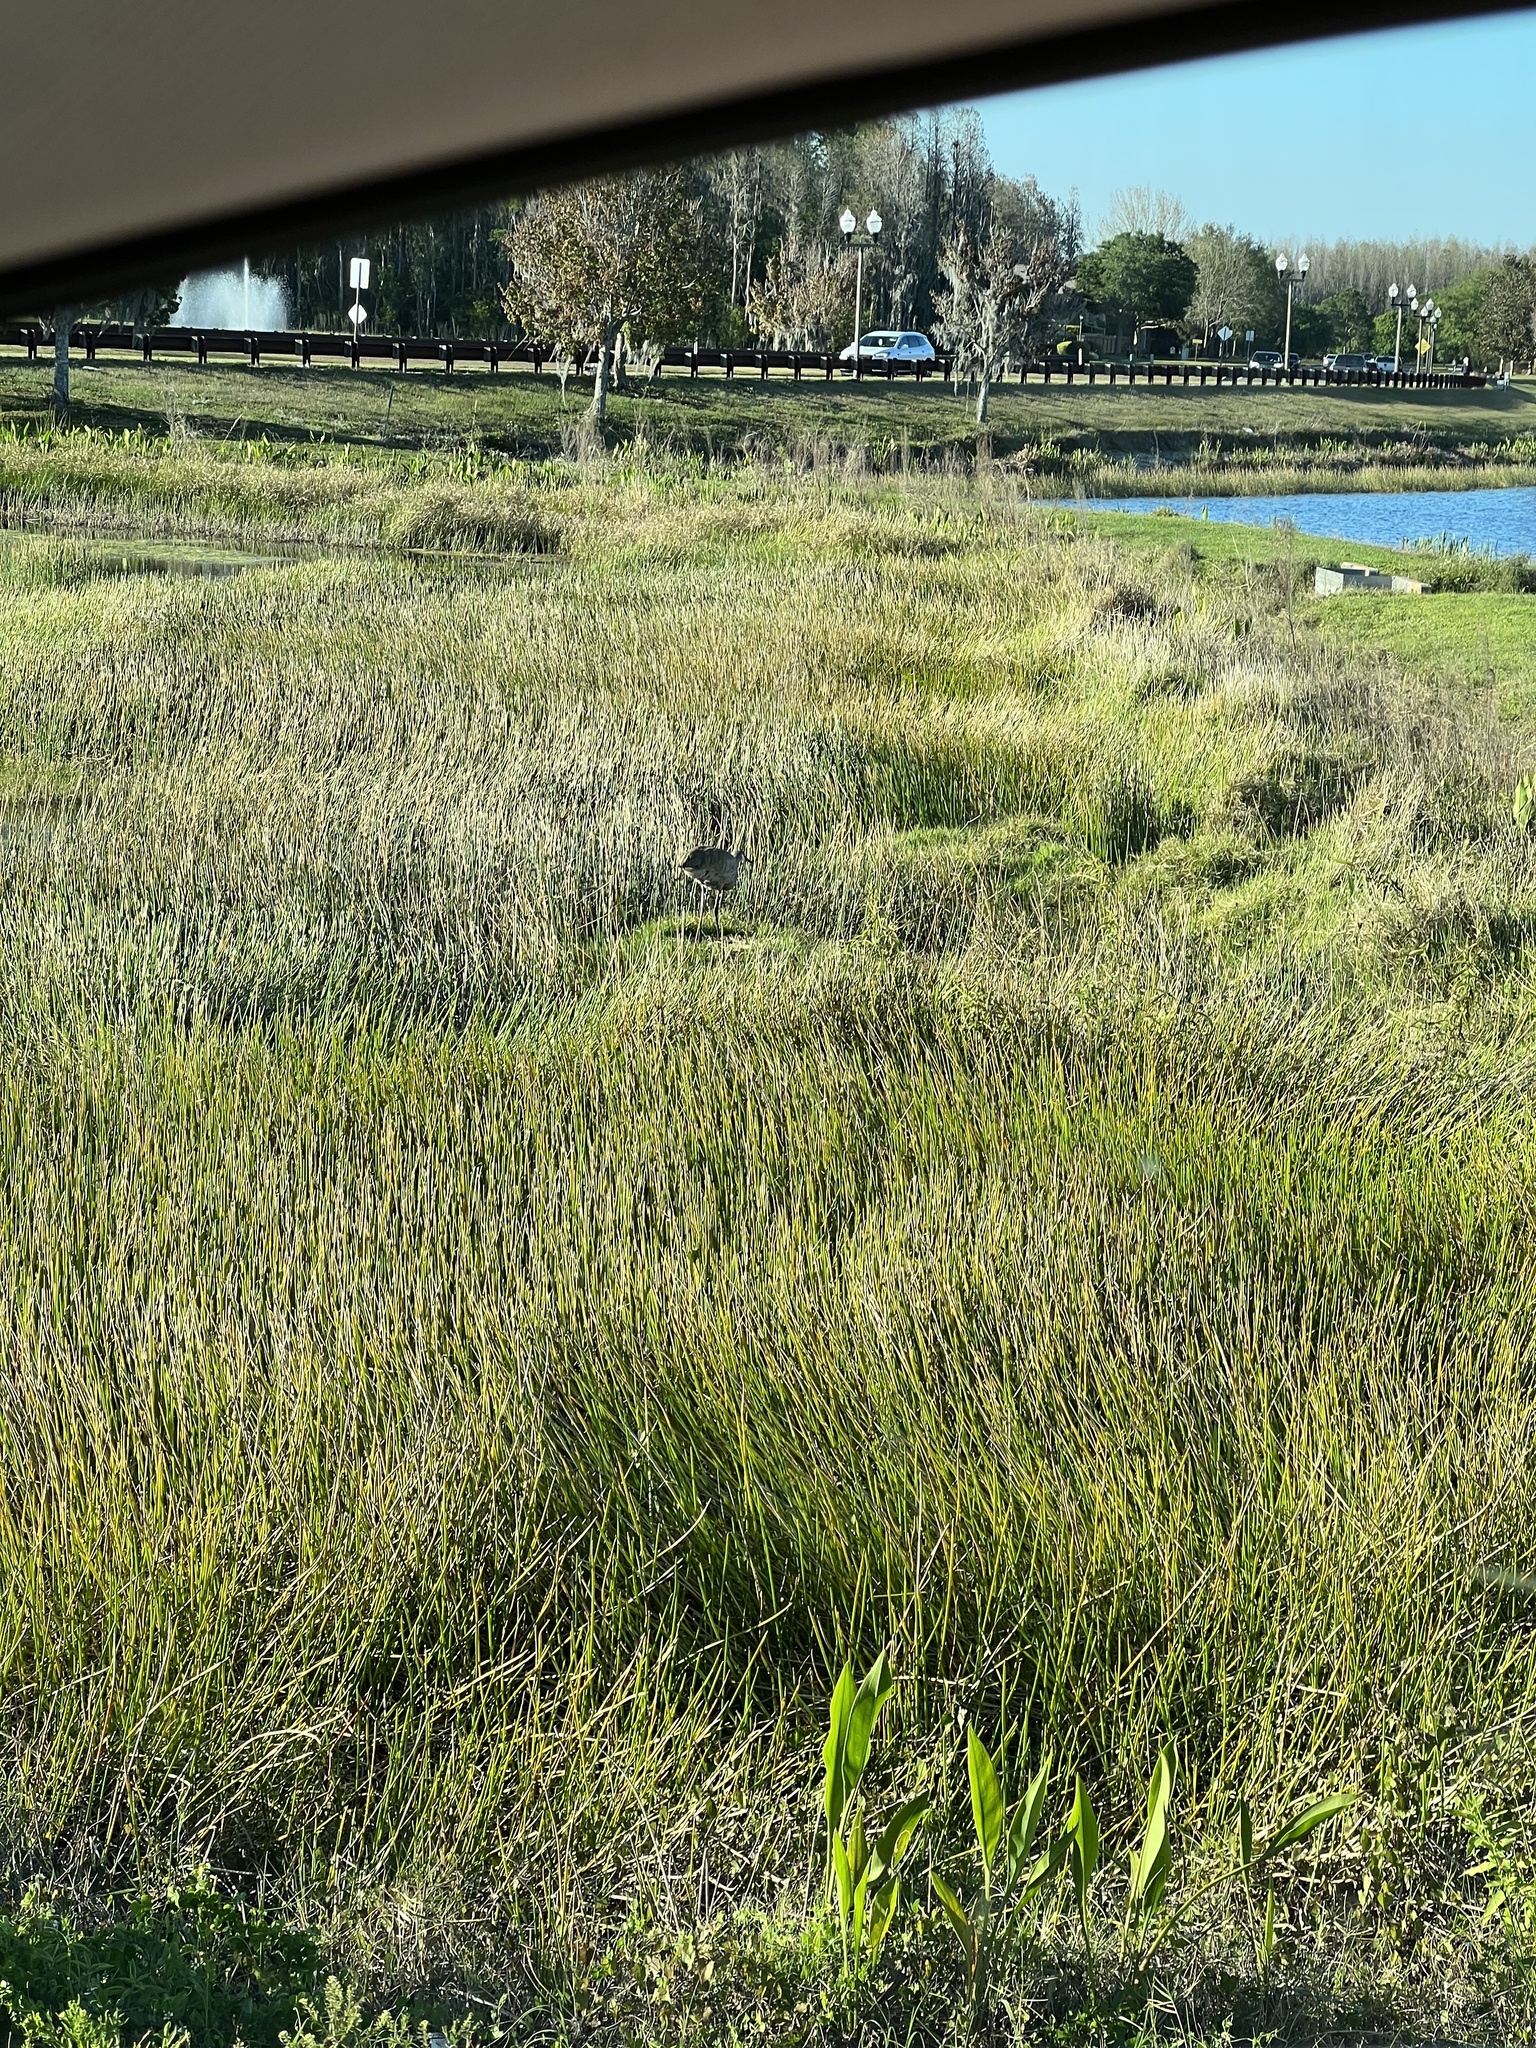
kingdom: Animalia
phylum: Chordata
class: Aves
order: Gruiformes
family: Gruidae
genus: Grus
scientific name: Grus canadensis
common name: Sandhill crane
